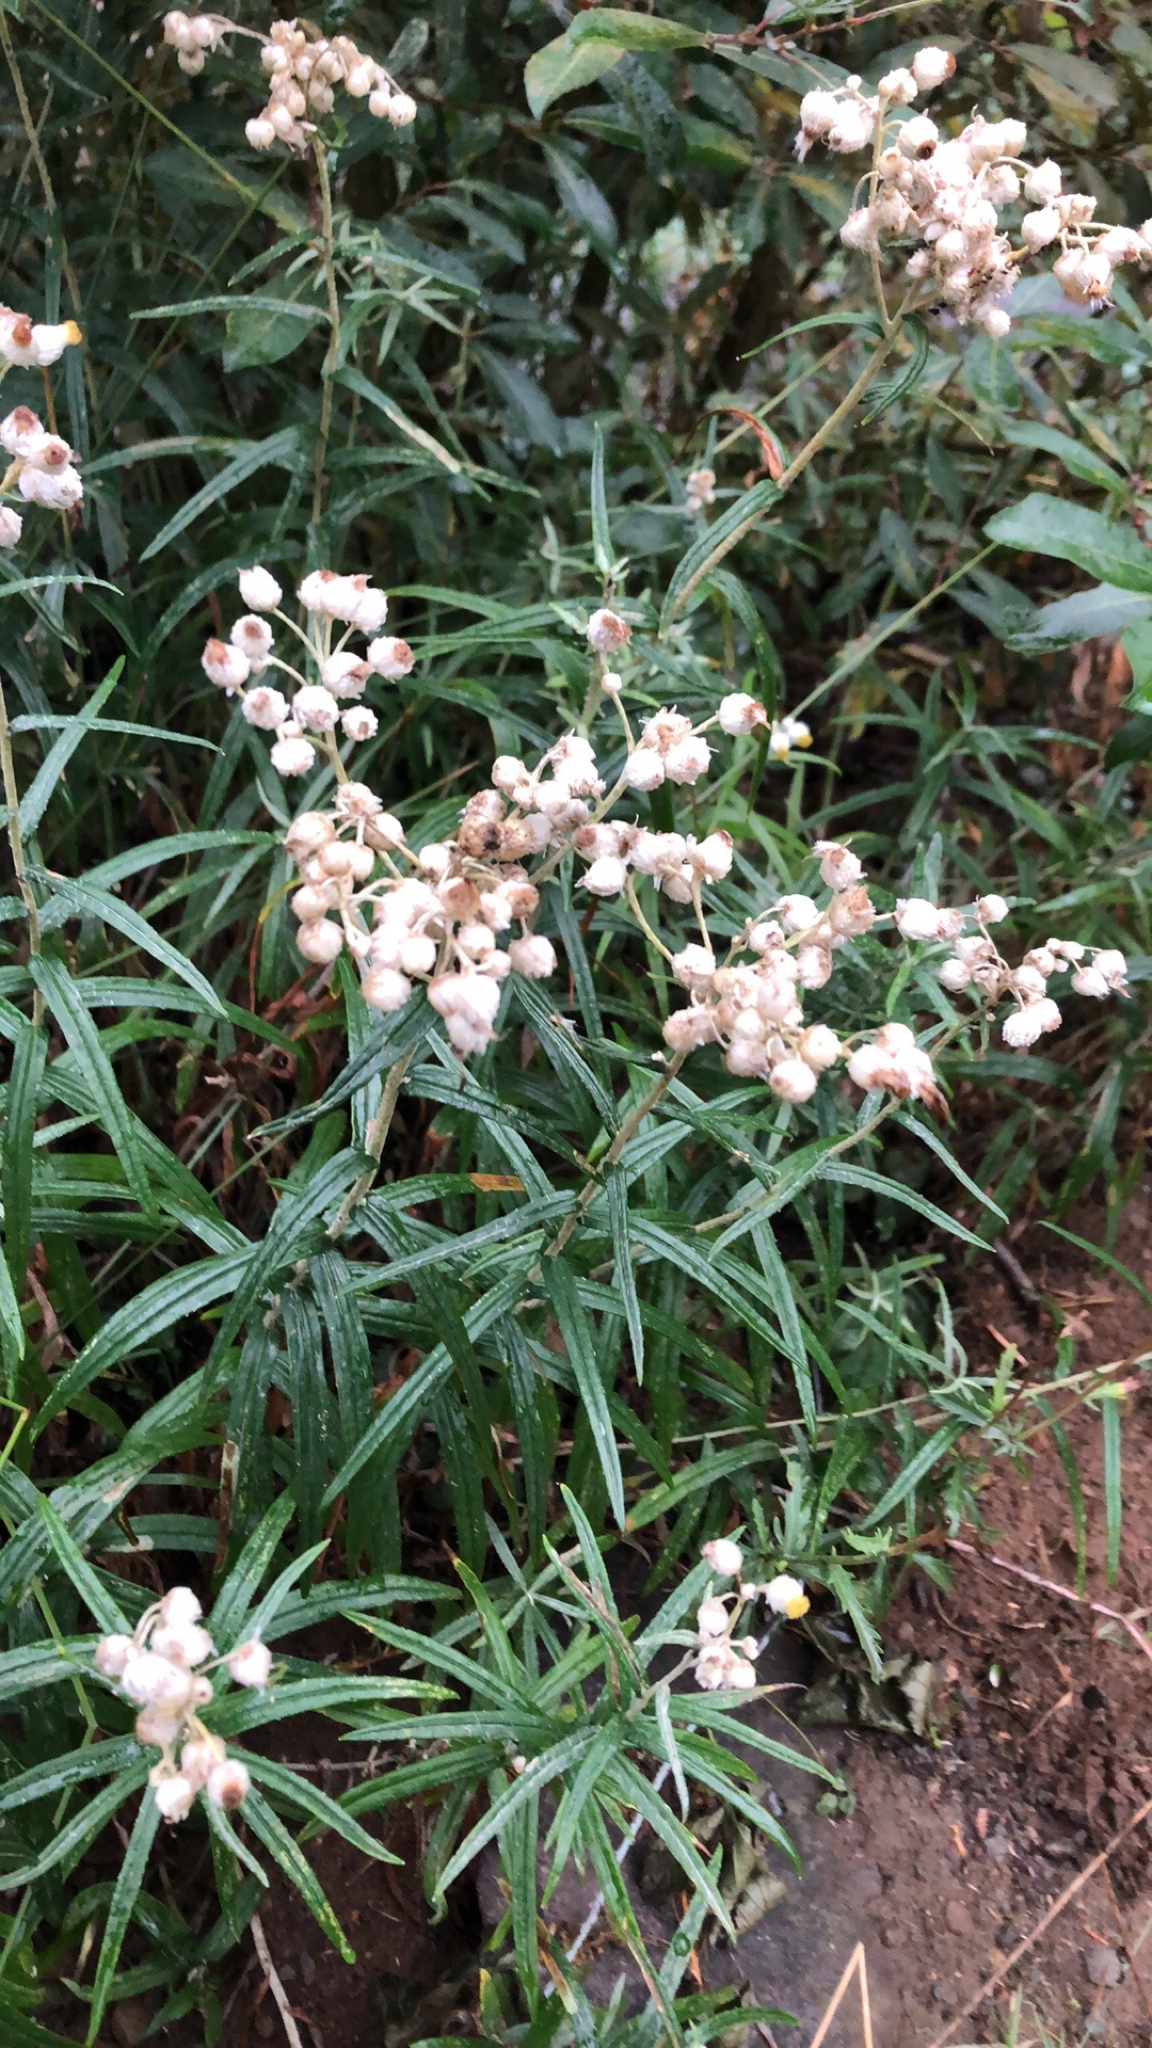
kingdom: Plantae
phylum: Tracheophyta
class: Magnoliopsida
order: Asterales
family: Asteraceae
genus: Anaphalis
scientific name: Anaphalis margaritacea
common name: Pearly everlasting
